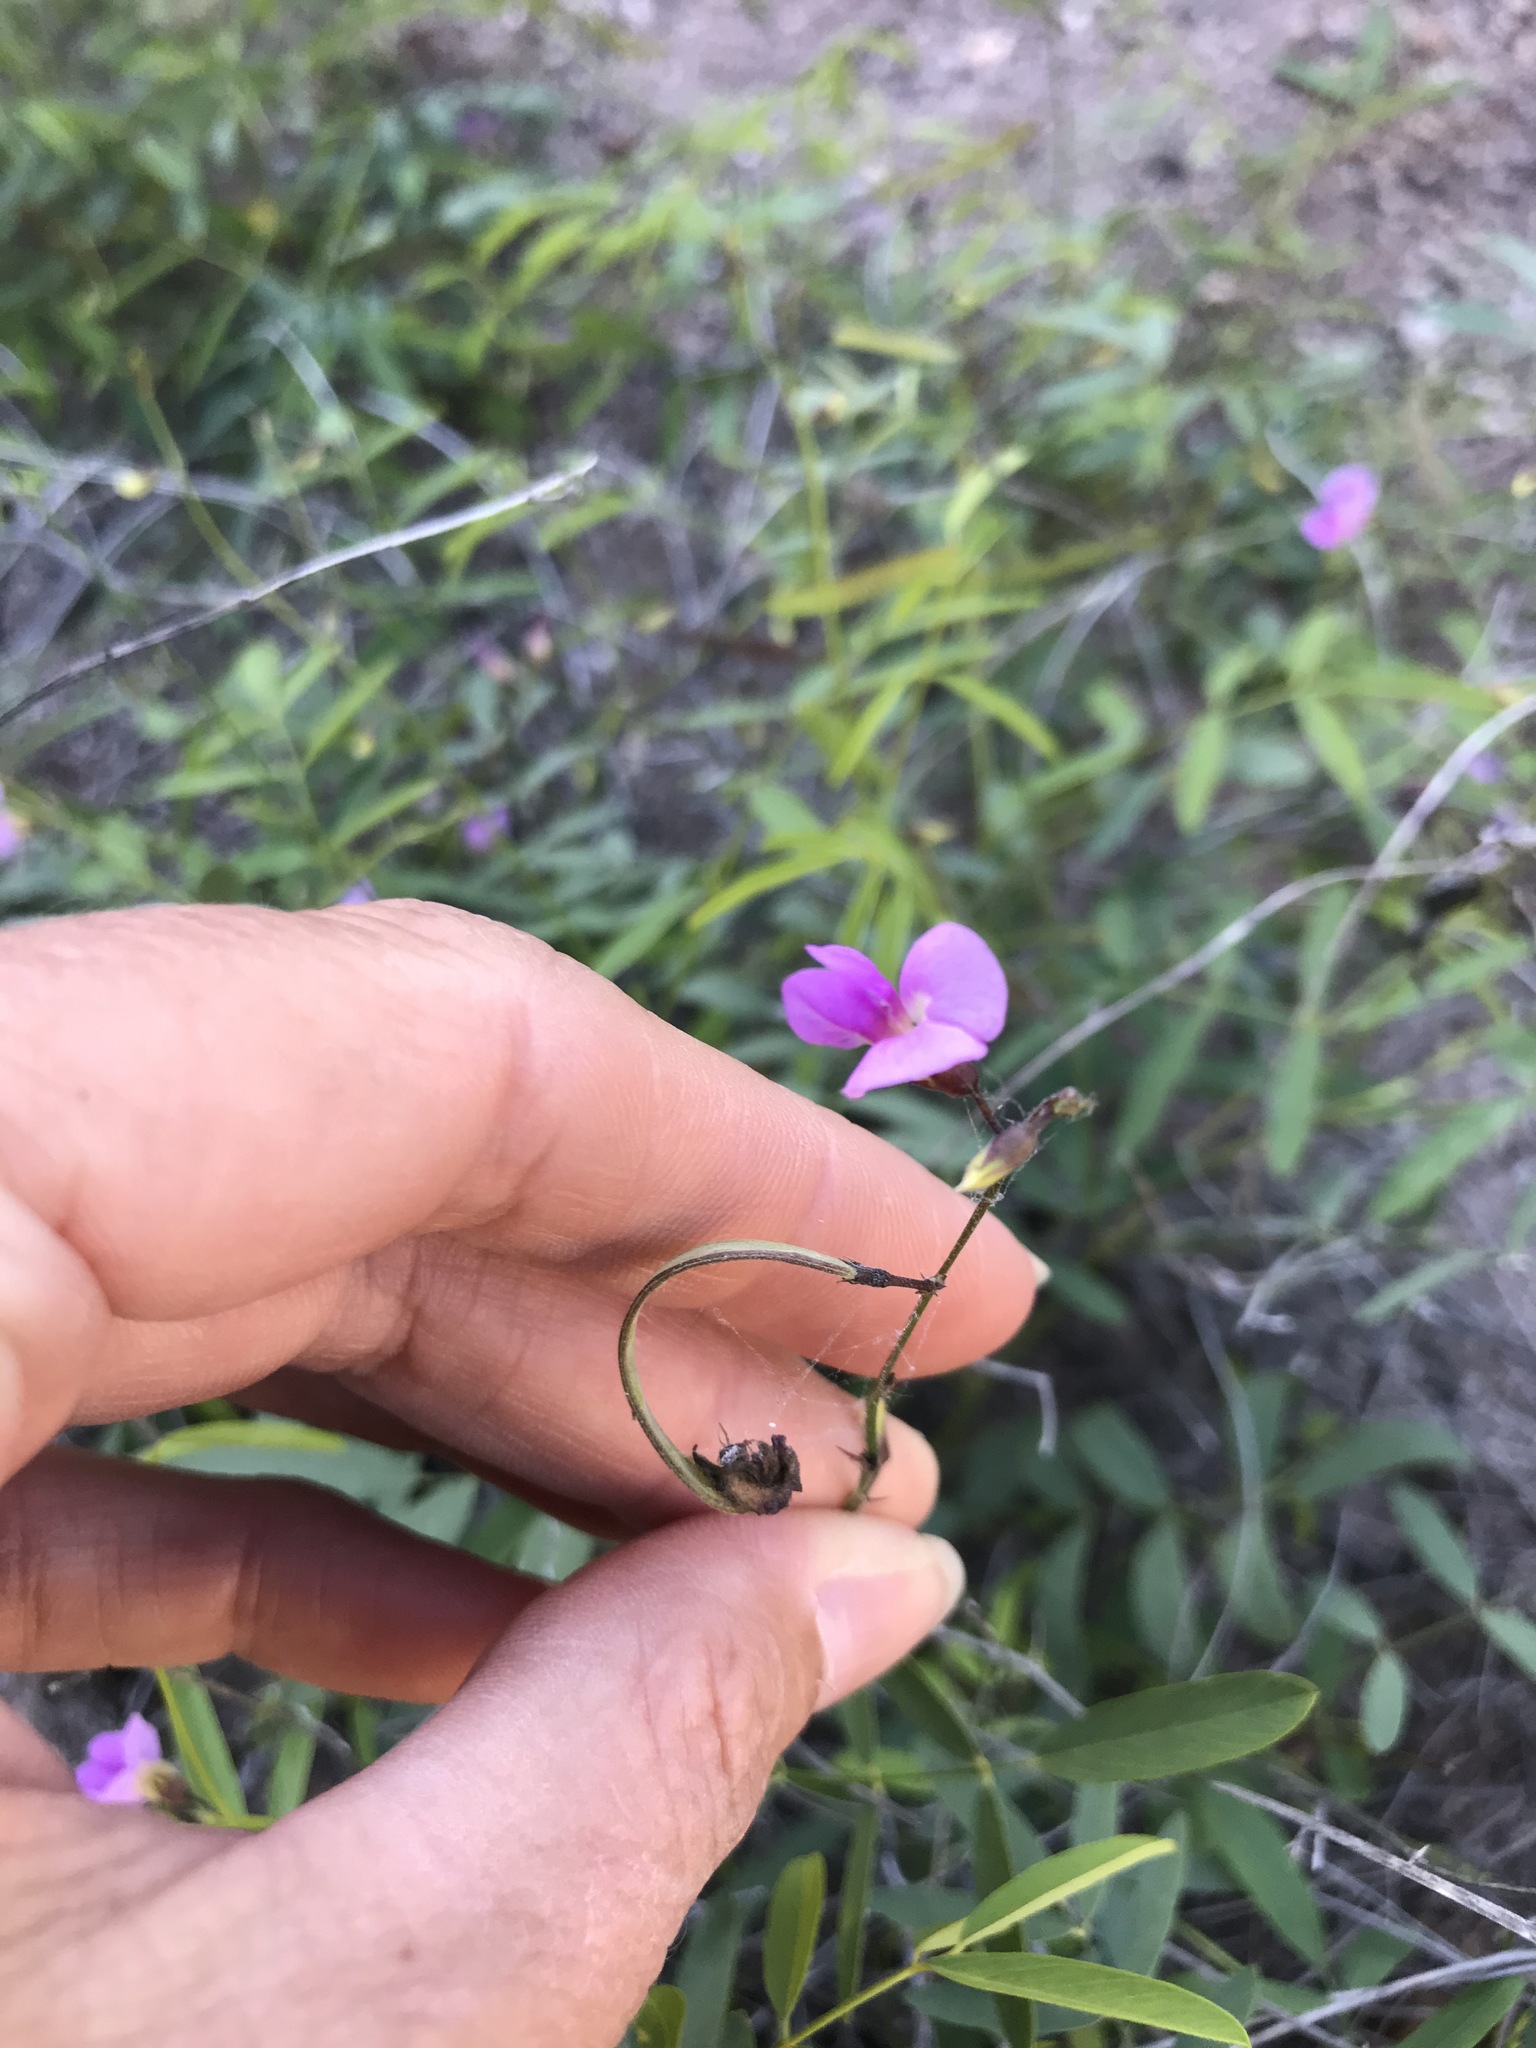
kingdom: Plantae
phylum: Tracheophyta
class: Magnoliopsida
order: Fabales
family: Fabaceae
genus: Tephrosia
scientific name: Tephrosia vicioides
